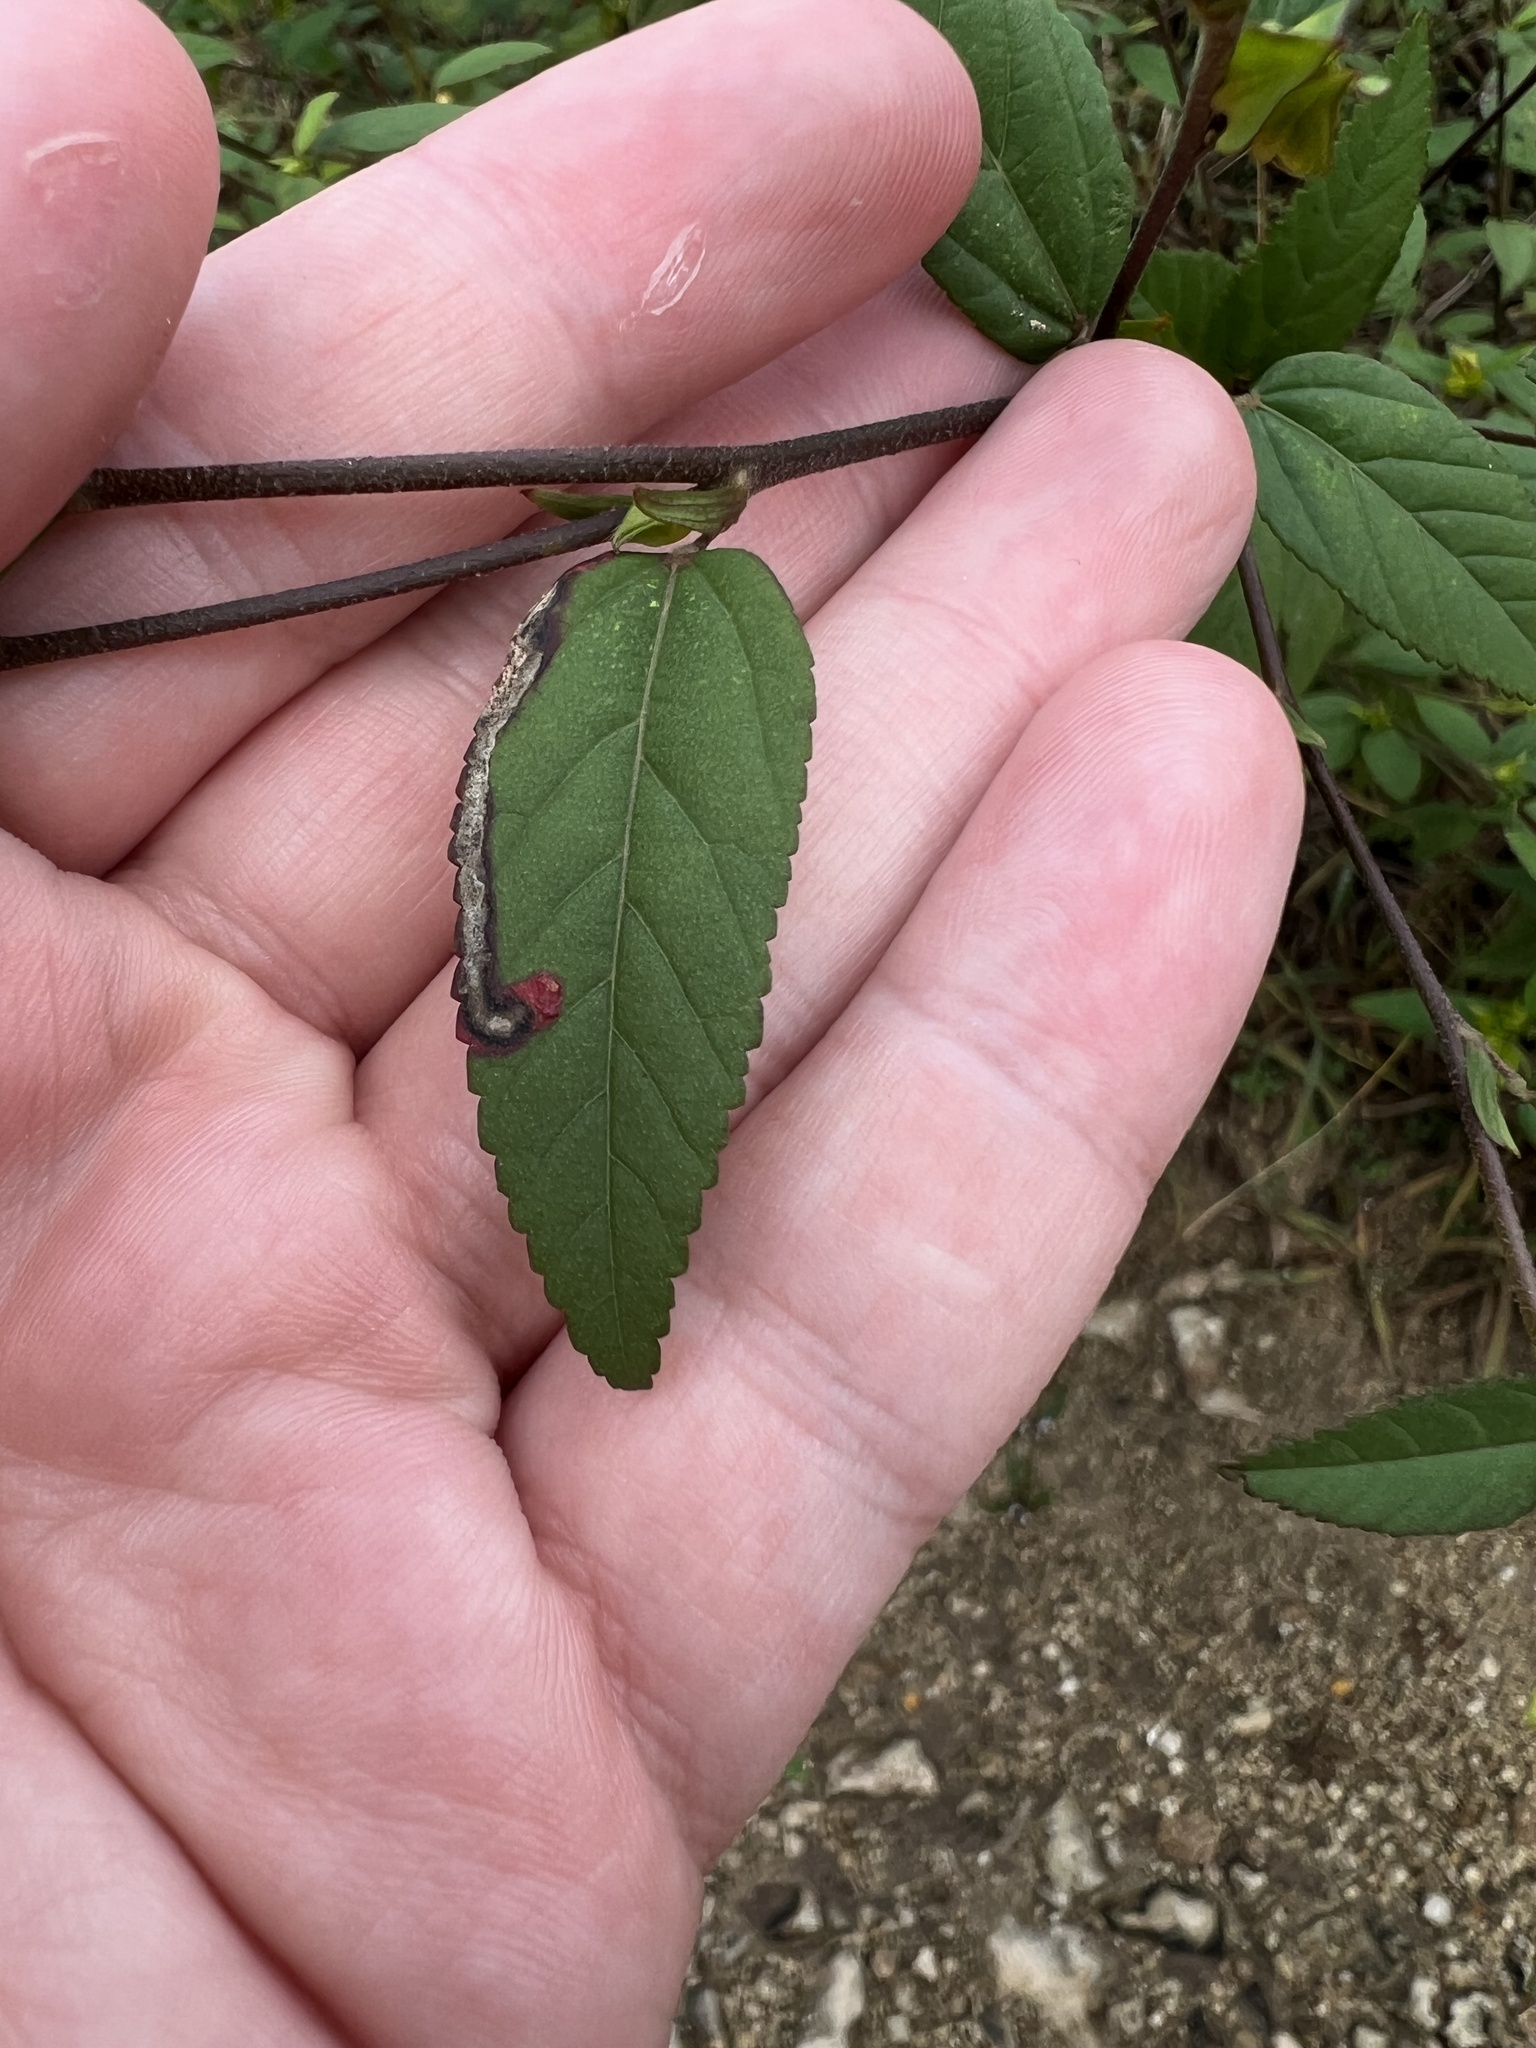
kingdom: Plantae
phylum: Tracheophyta
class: Magnoliopsida
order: Malvales
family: Malvaceae
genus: Sida
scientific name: Sida acuta
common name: Common wireweed
